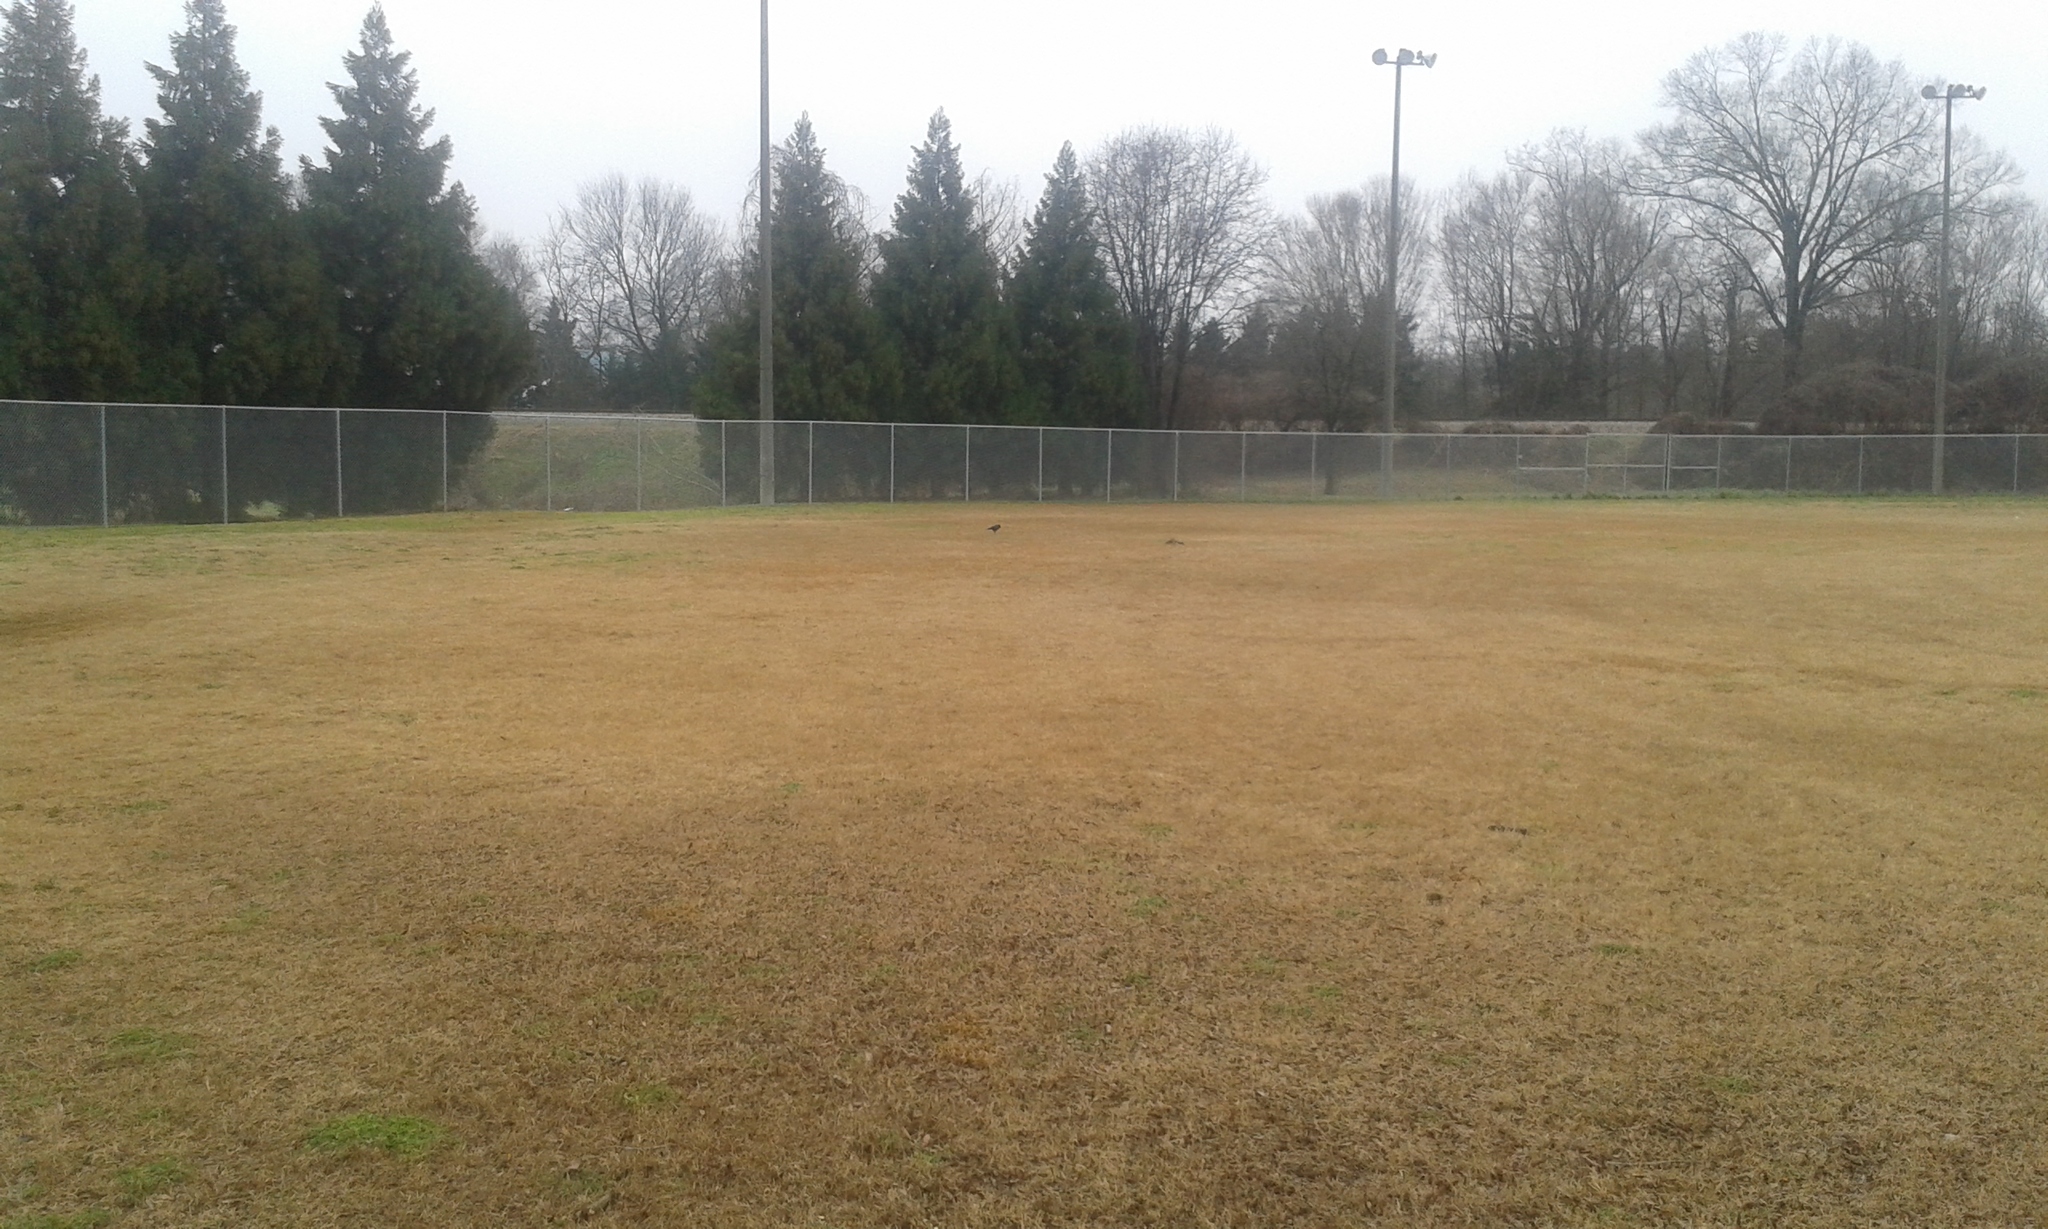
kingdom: Animalia
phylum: Chordata
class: Aves
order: Passeriformes
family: Corvidae
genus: Corvus
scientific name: Corvus
